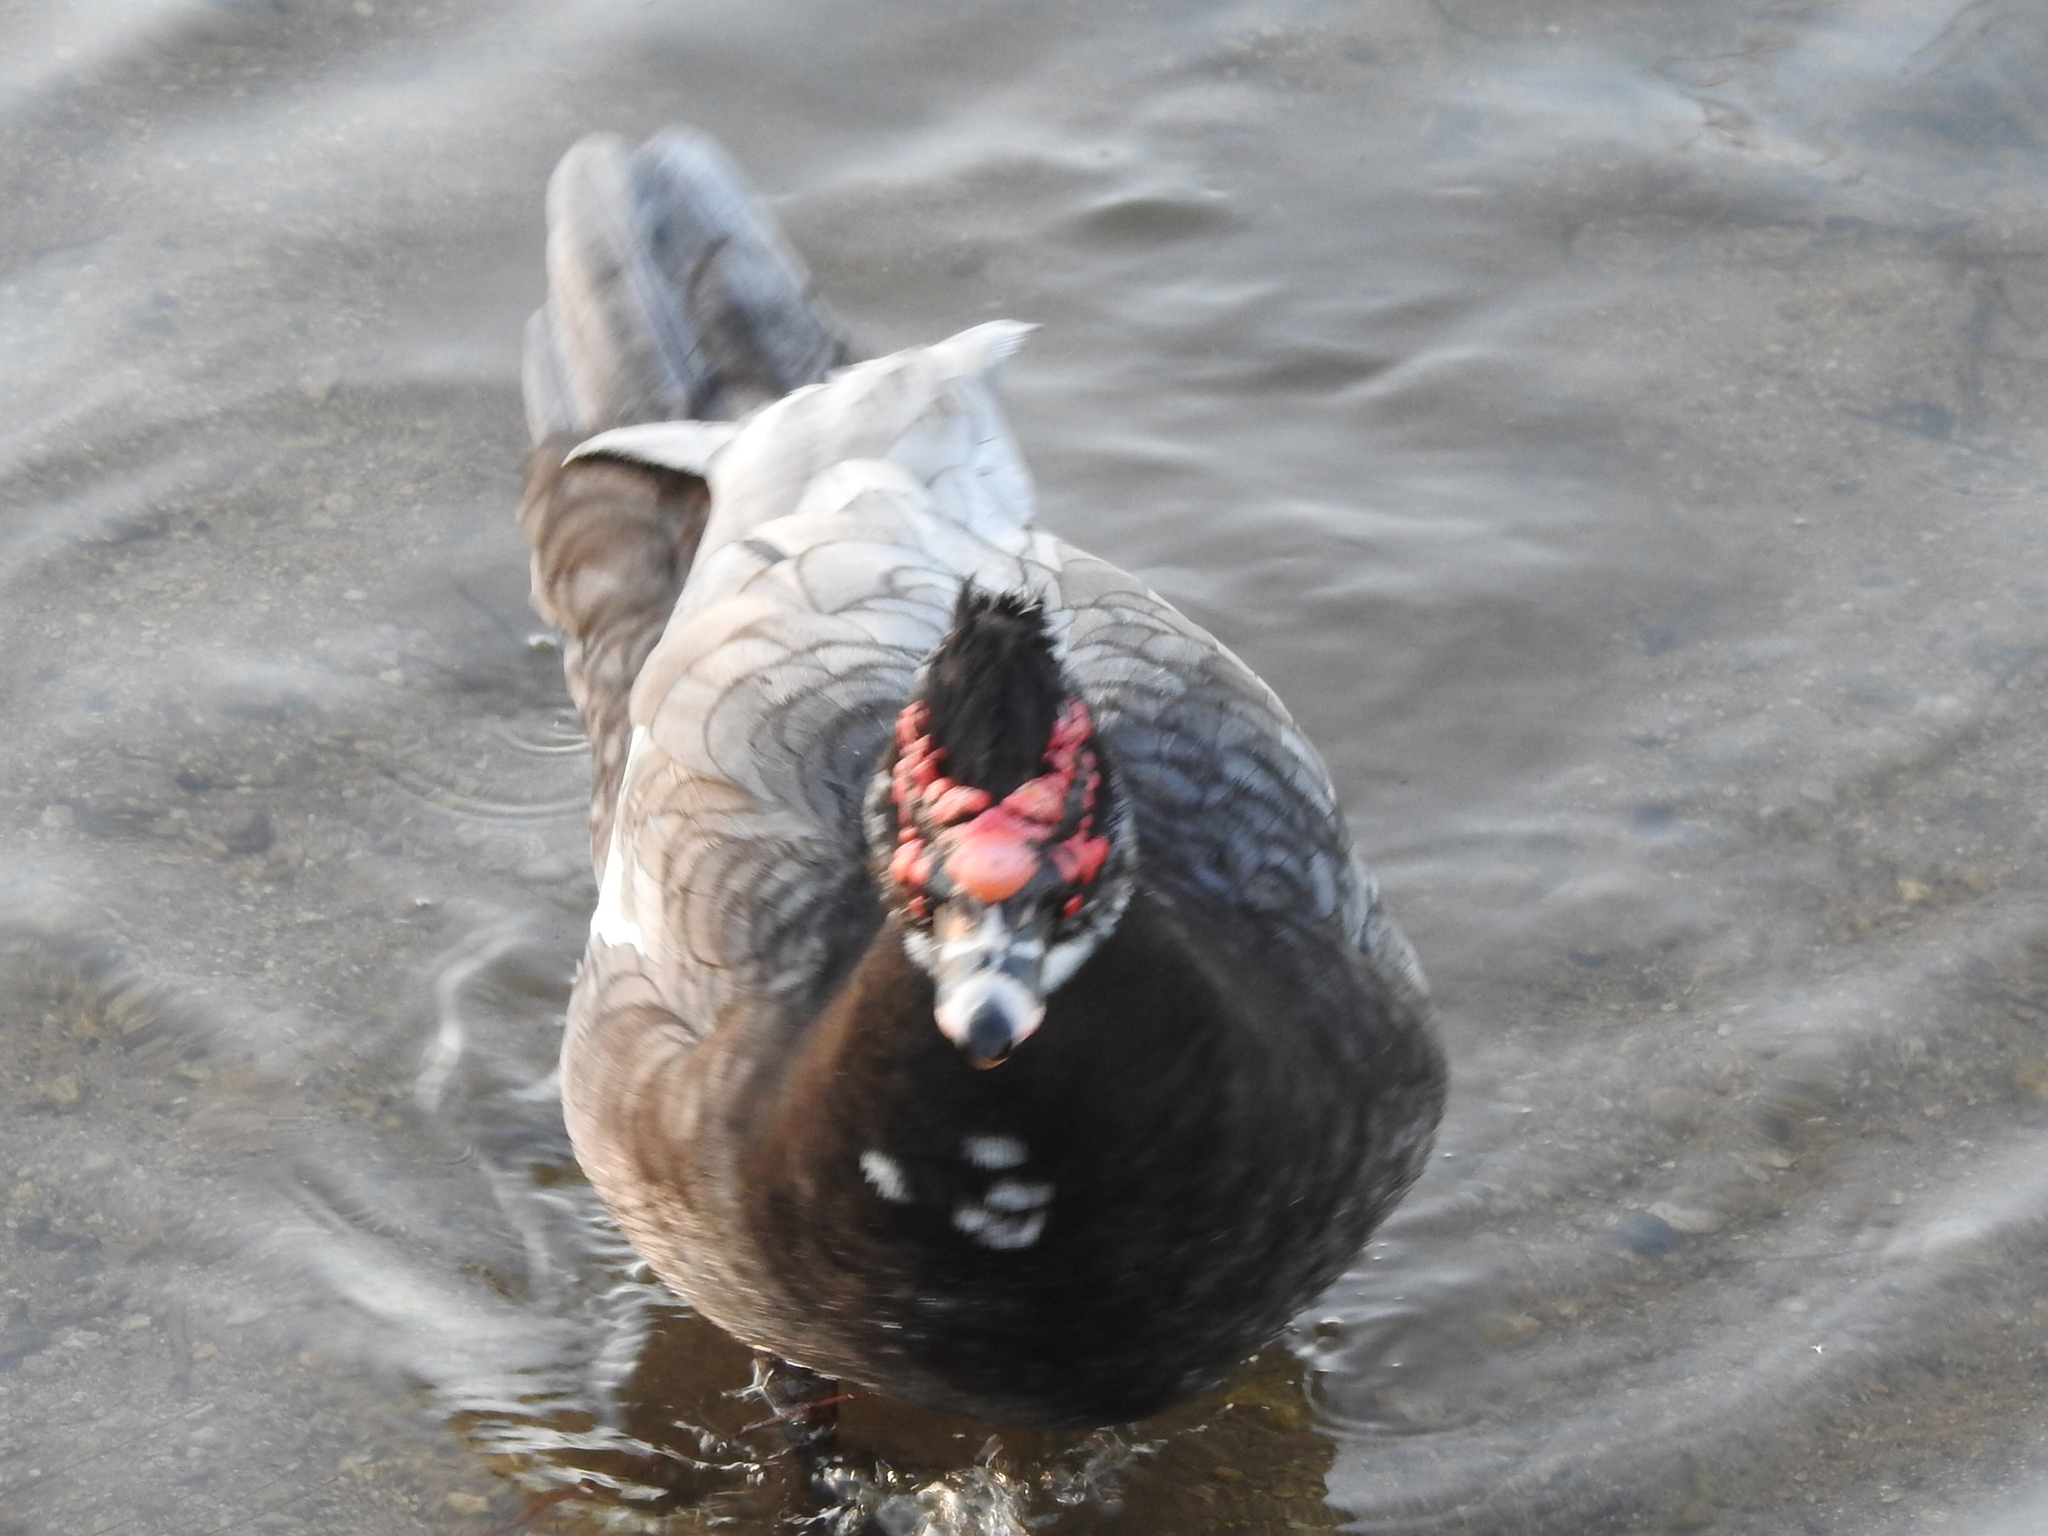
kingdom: Animalia
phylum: Chordata
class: Aves
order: Anseriformes
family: Anatidae
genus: Cairina
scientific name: Cairina moschata
